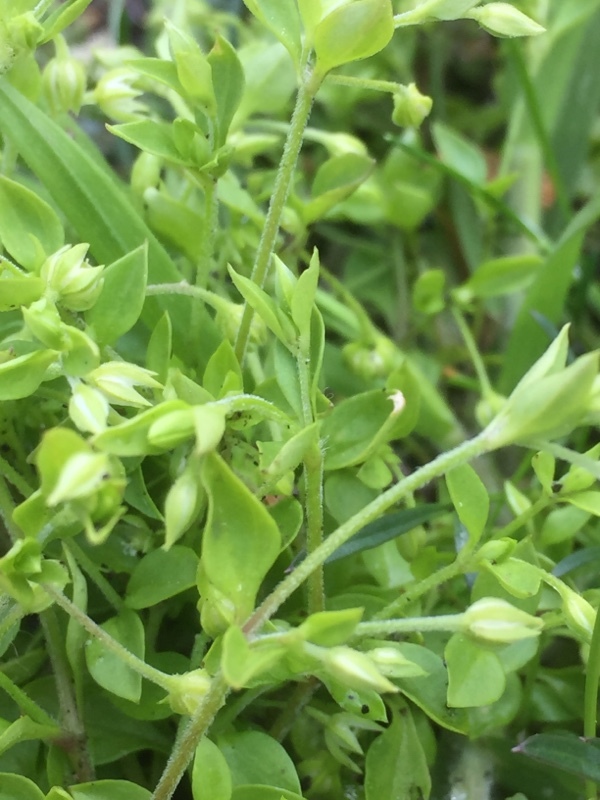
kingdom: Plantae
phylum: Tracheophyta
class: Magnoliopsida
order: Caryophyllales
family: Caryophyllaceae
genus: Stellaria
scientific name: Stellaria alsine
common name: Bog stitchwort
